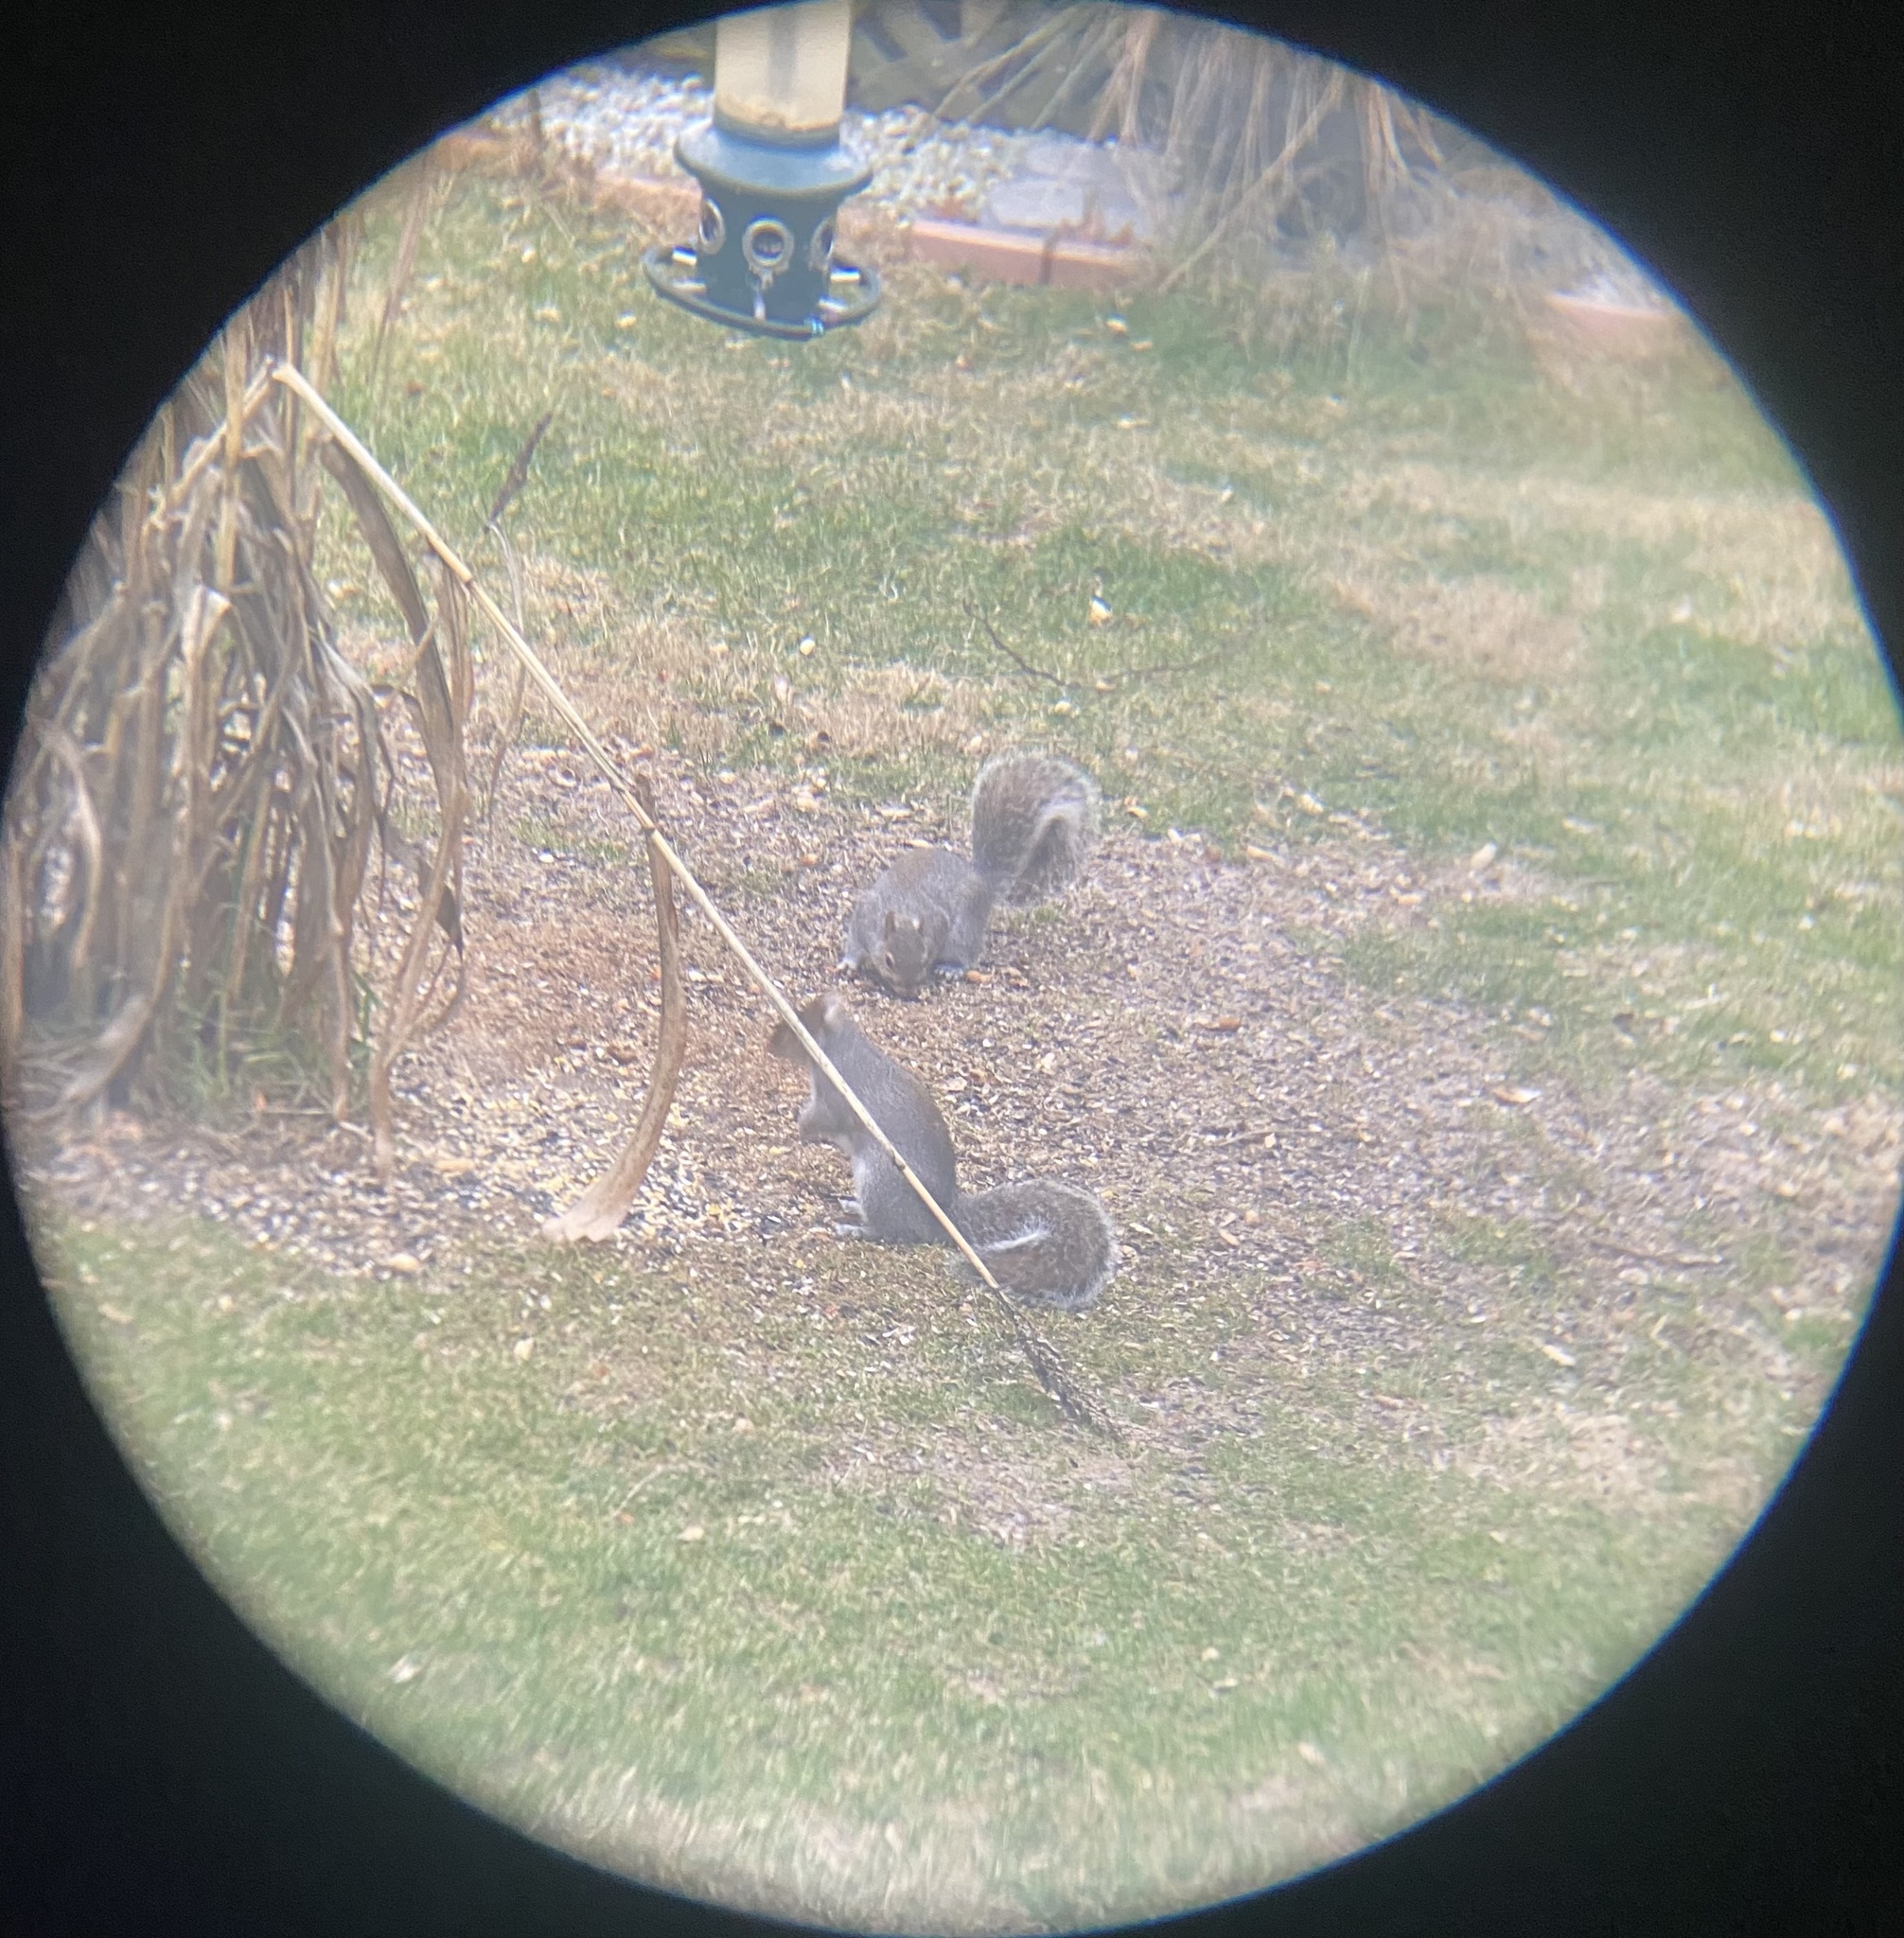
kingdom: Animalia
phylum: Chordata
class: Mammalia
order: Rodentia
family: Sciuridae
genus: Sciurus
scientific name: Sciurus carolinensis
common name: Eastern gray squirrel
